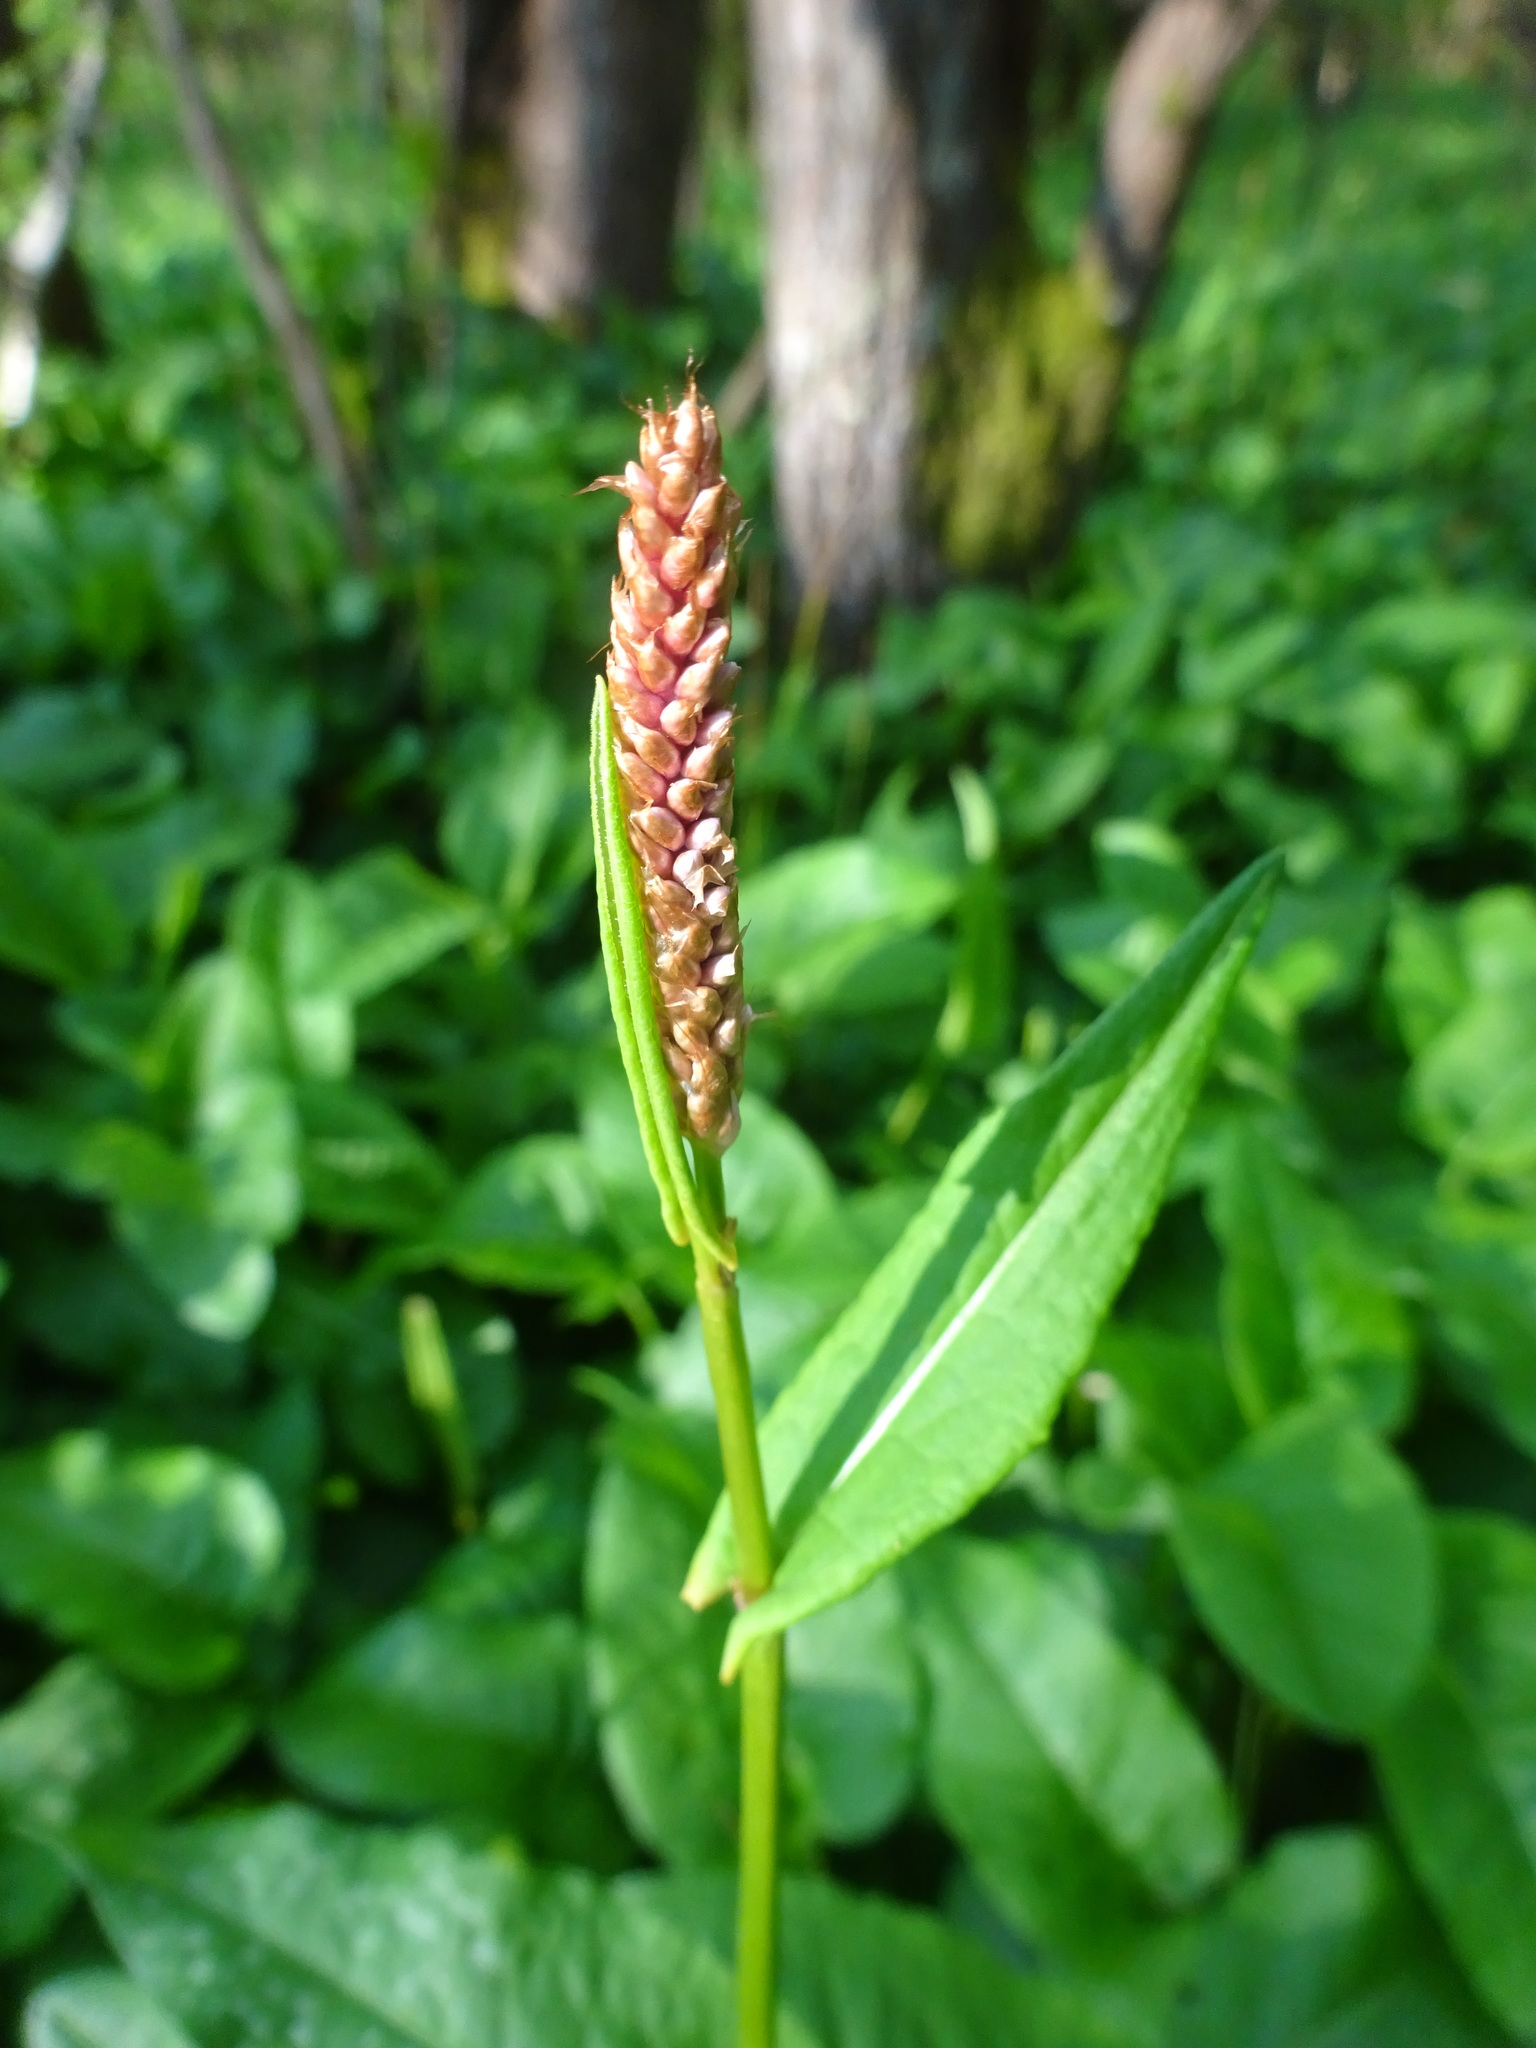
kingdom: Plantae
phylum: Tracheophyta
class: Magnoliopsida
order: Caryophyllales
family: Polygonaceae
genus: Bistorta
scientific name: Bistorta officinalis
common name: Common bistort
